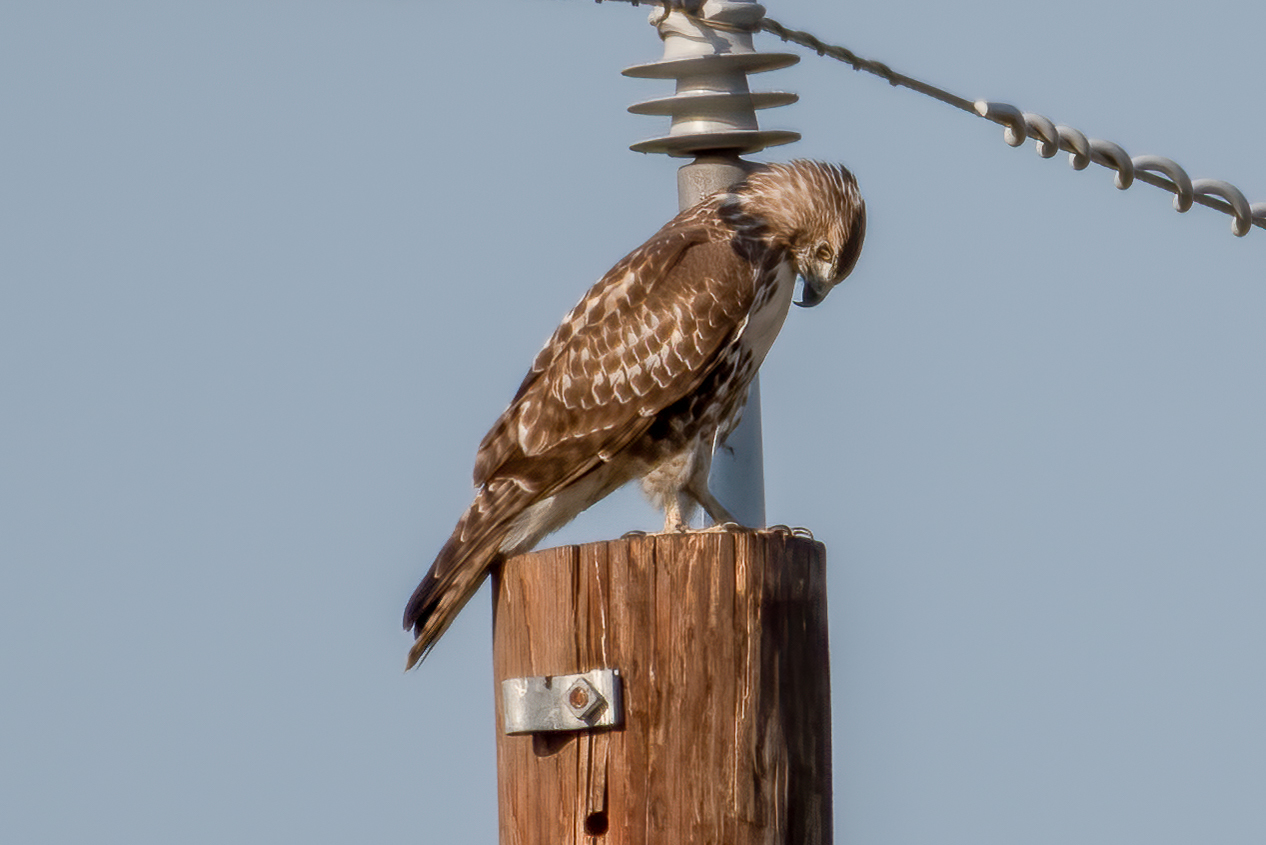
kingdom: Animalia
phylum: Chordata
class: Aves
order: Accipitriformes
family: Accipitridae
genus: Buteo
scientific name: Buteo jamaicensis
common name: Red-tailed hawk
